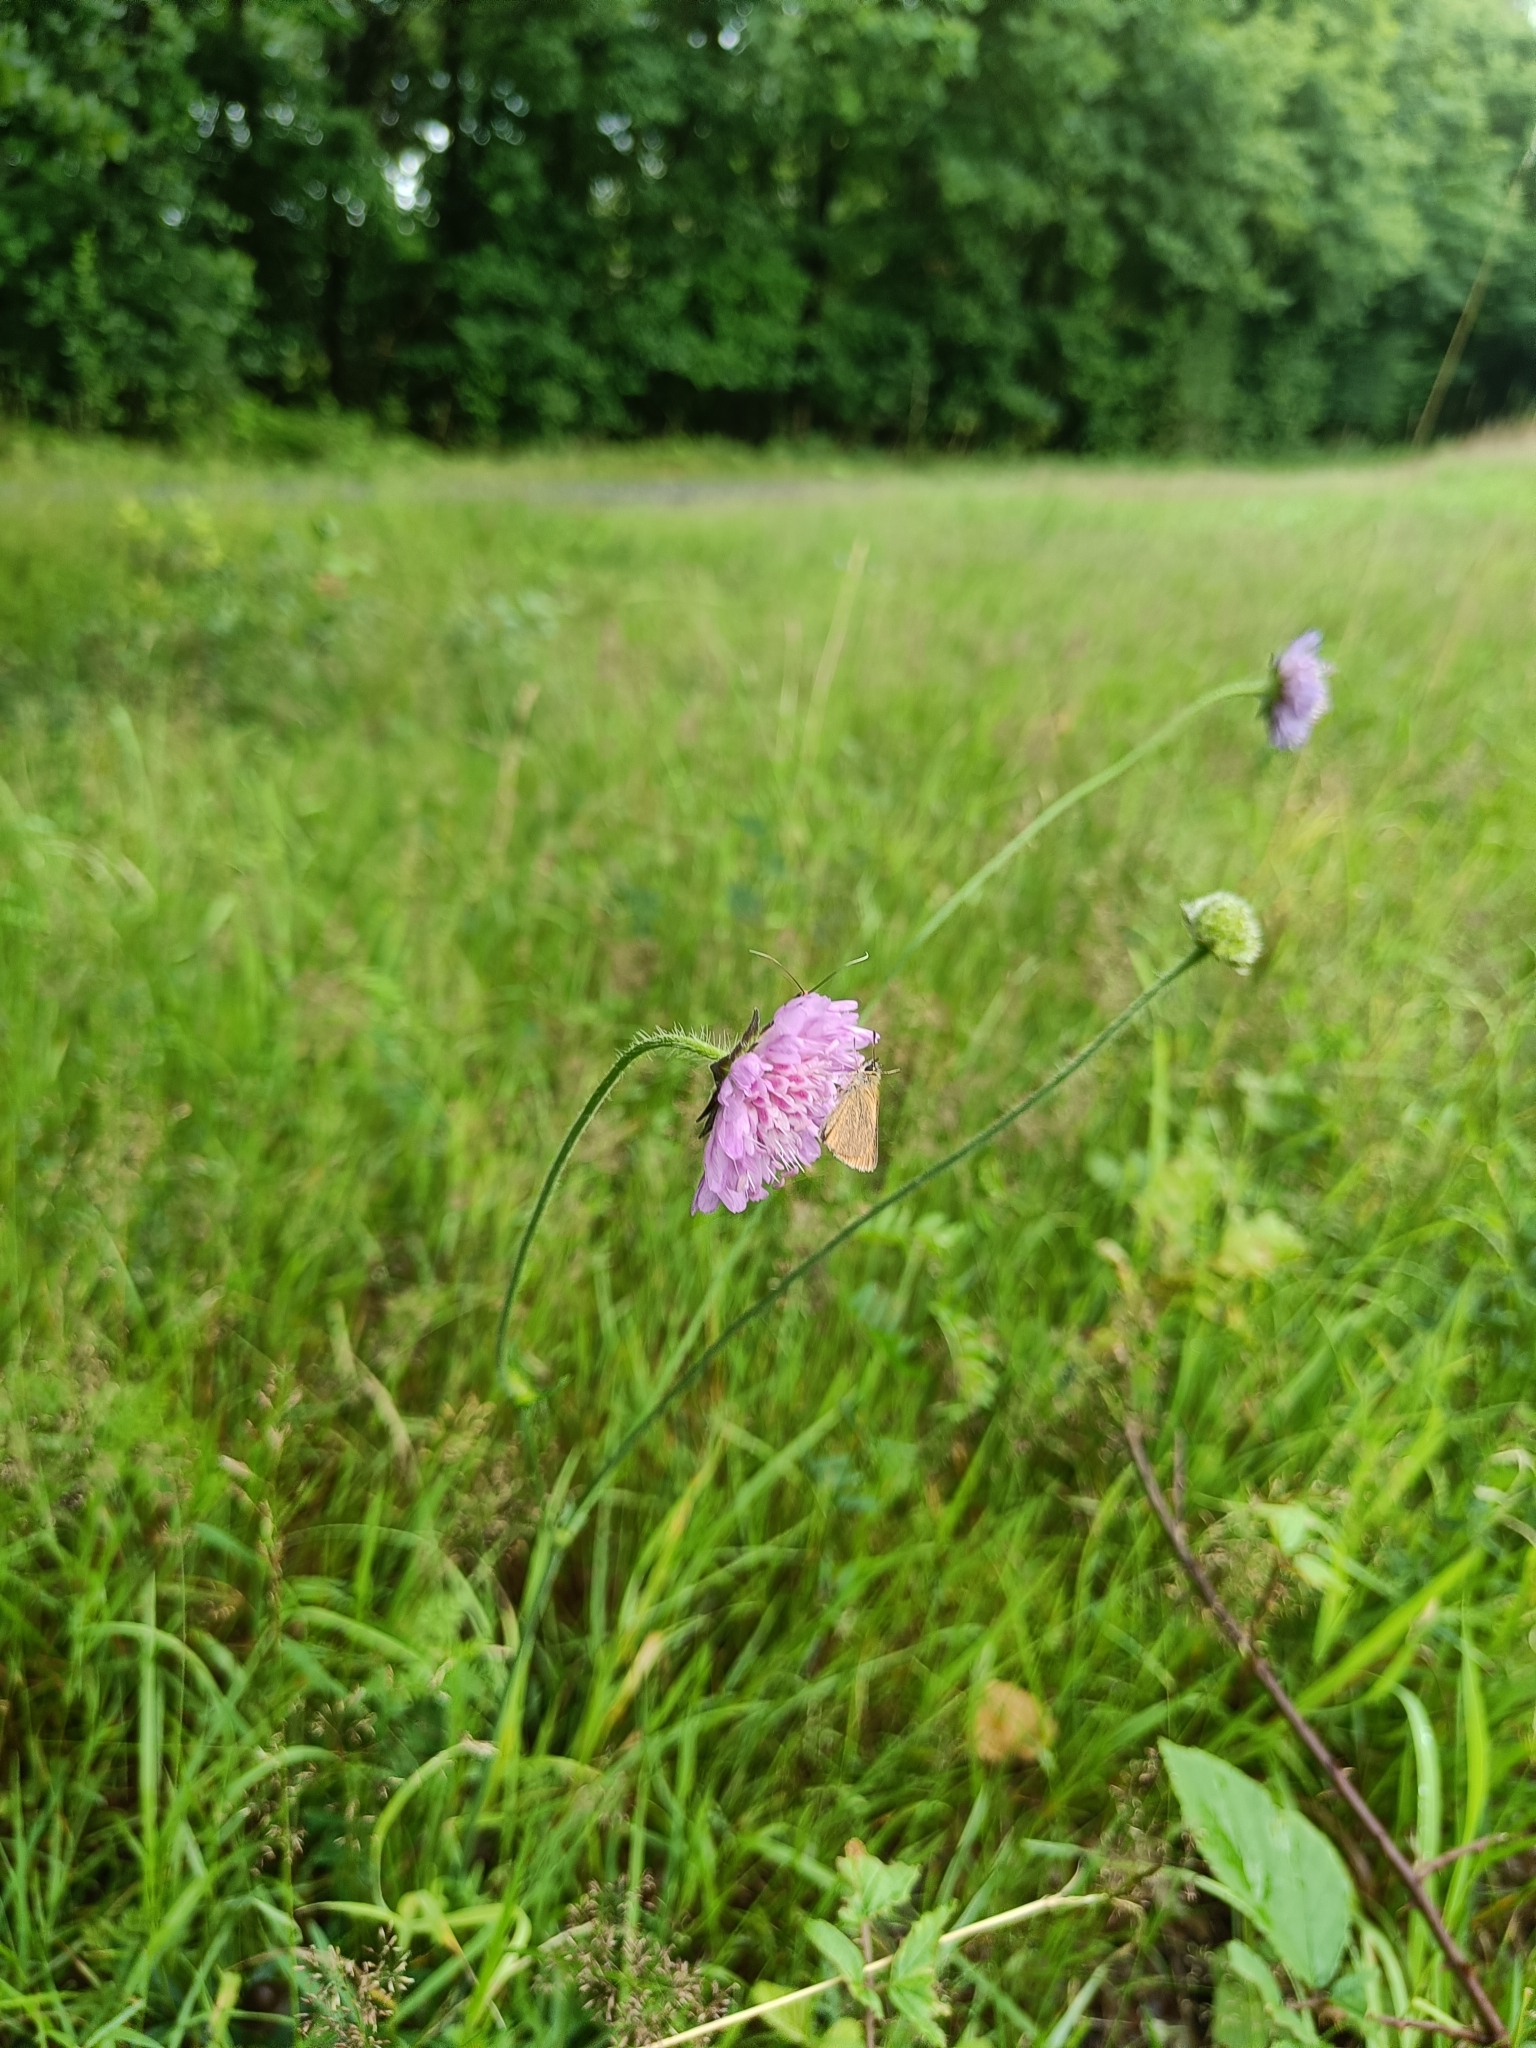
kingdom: Plantae
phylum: Tracheophyta
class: Magnoliopsida
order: Dipsacales
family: Caprifoliaceae
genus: Knautia
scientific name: Knautia arvensis
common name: Field scabiosa
